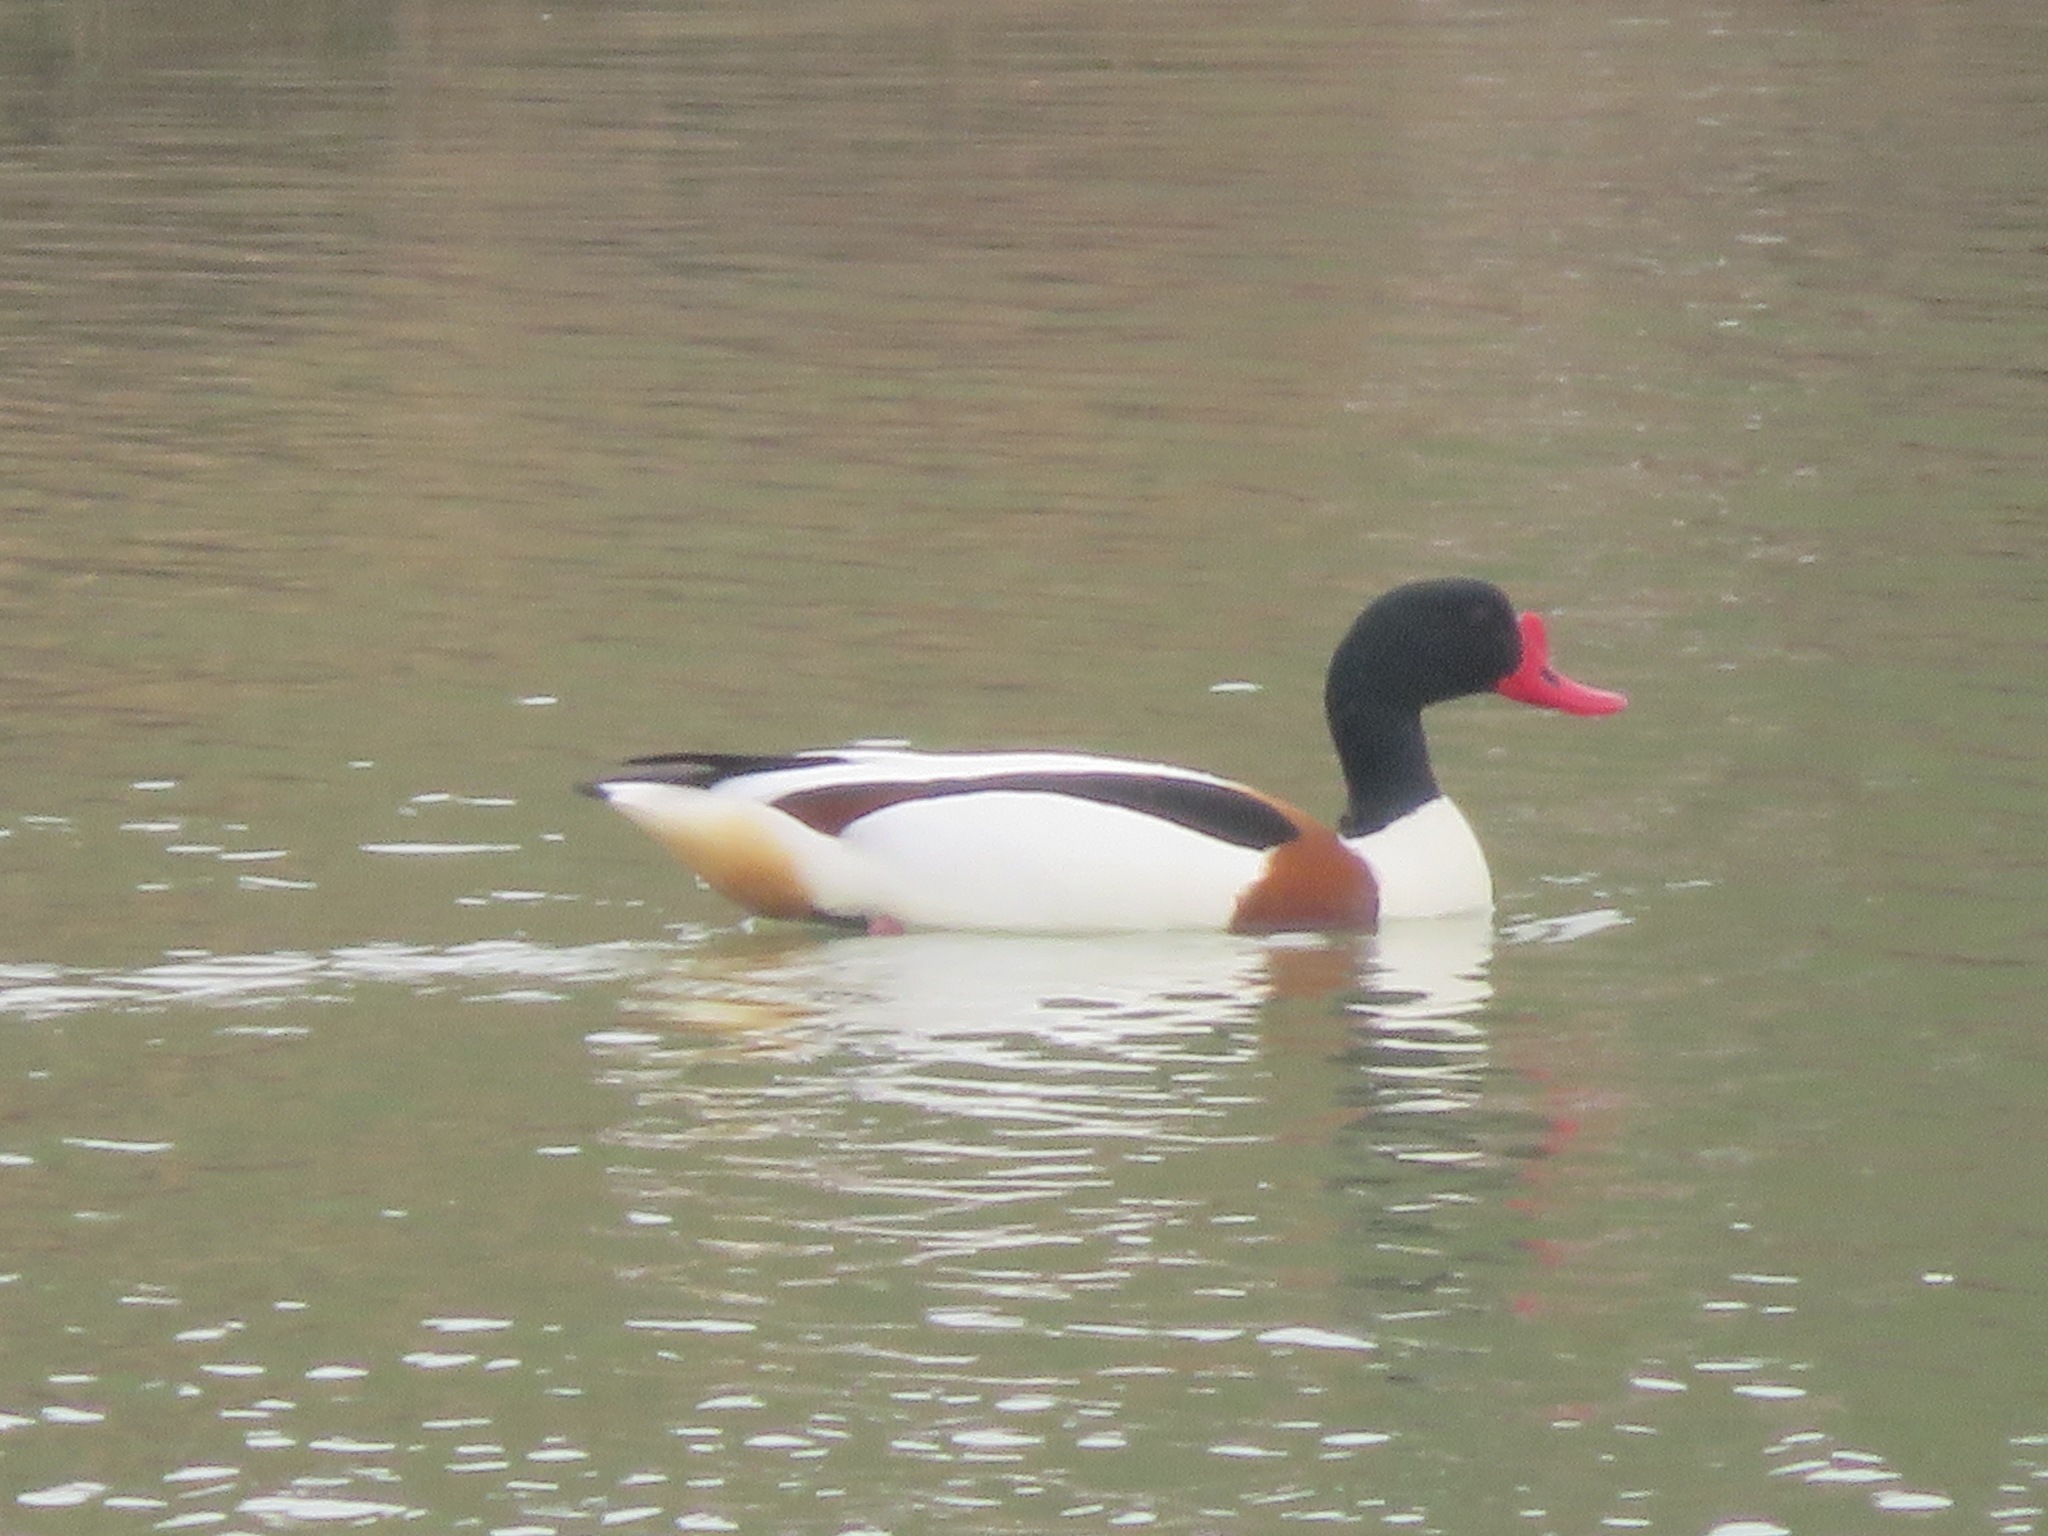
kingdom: Animalia
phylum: Chordata
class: Aves
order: Anseriformes
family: Anatidae
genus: Tadorna
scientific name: Tadorna tadorna
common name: Common shelduck
